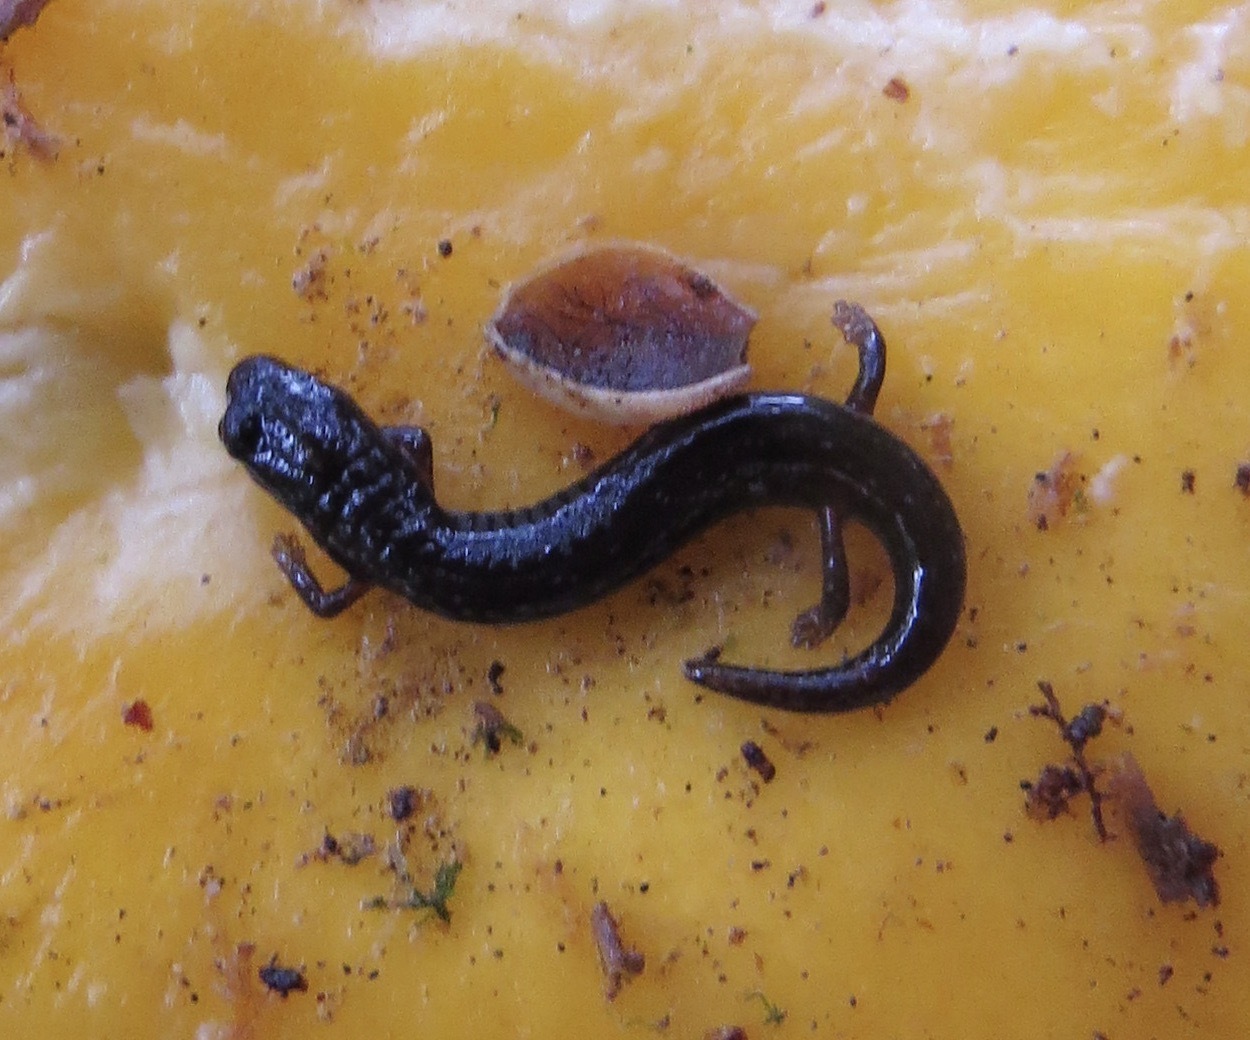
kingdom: Animalia
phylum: Chordata
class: Amphibia
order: Caudata
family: Plethodontidae
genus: Batrachoseps
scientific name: Batrachoseps attenuatus
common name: California slender salamander
